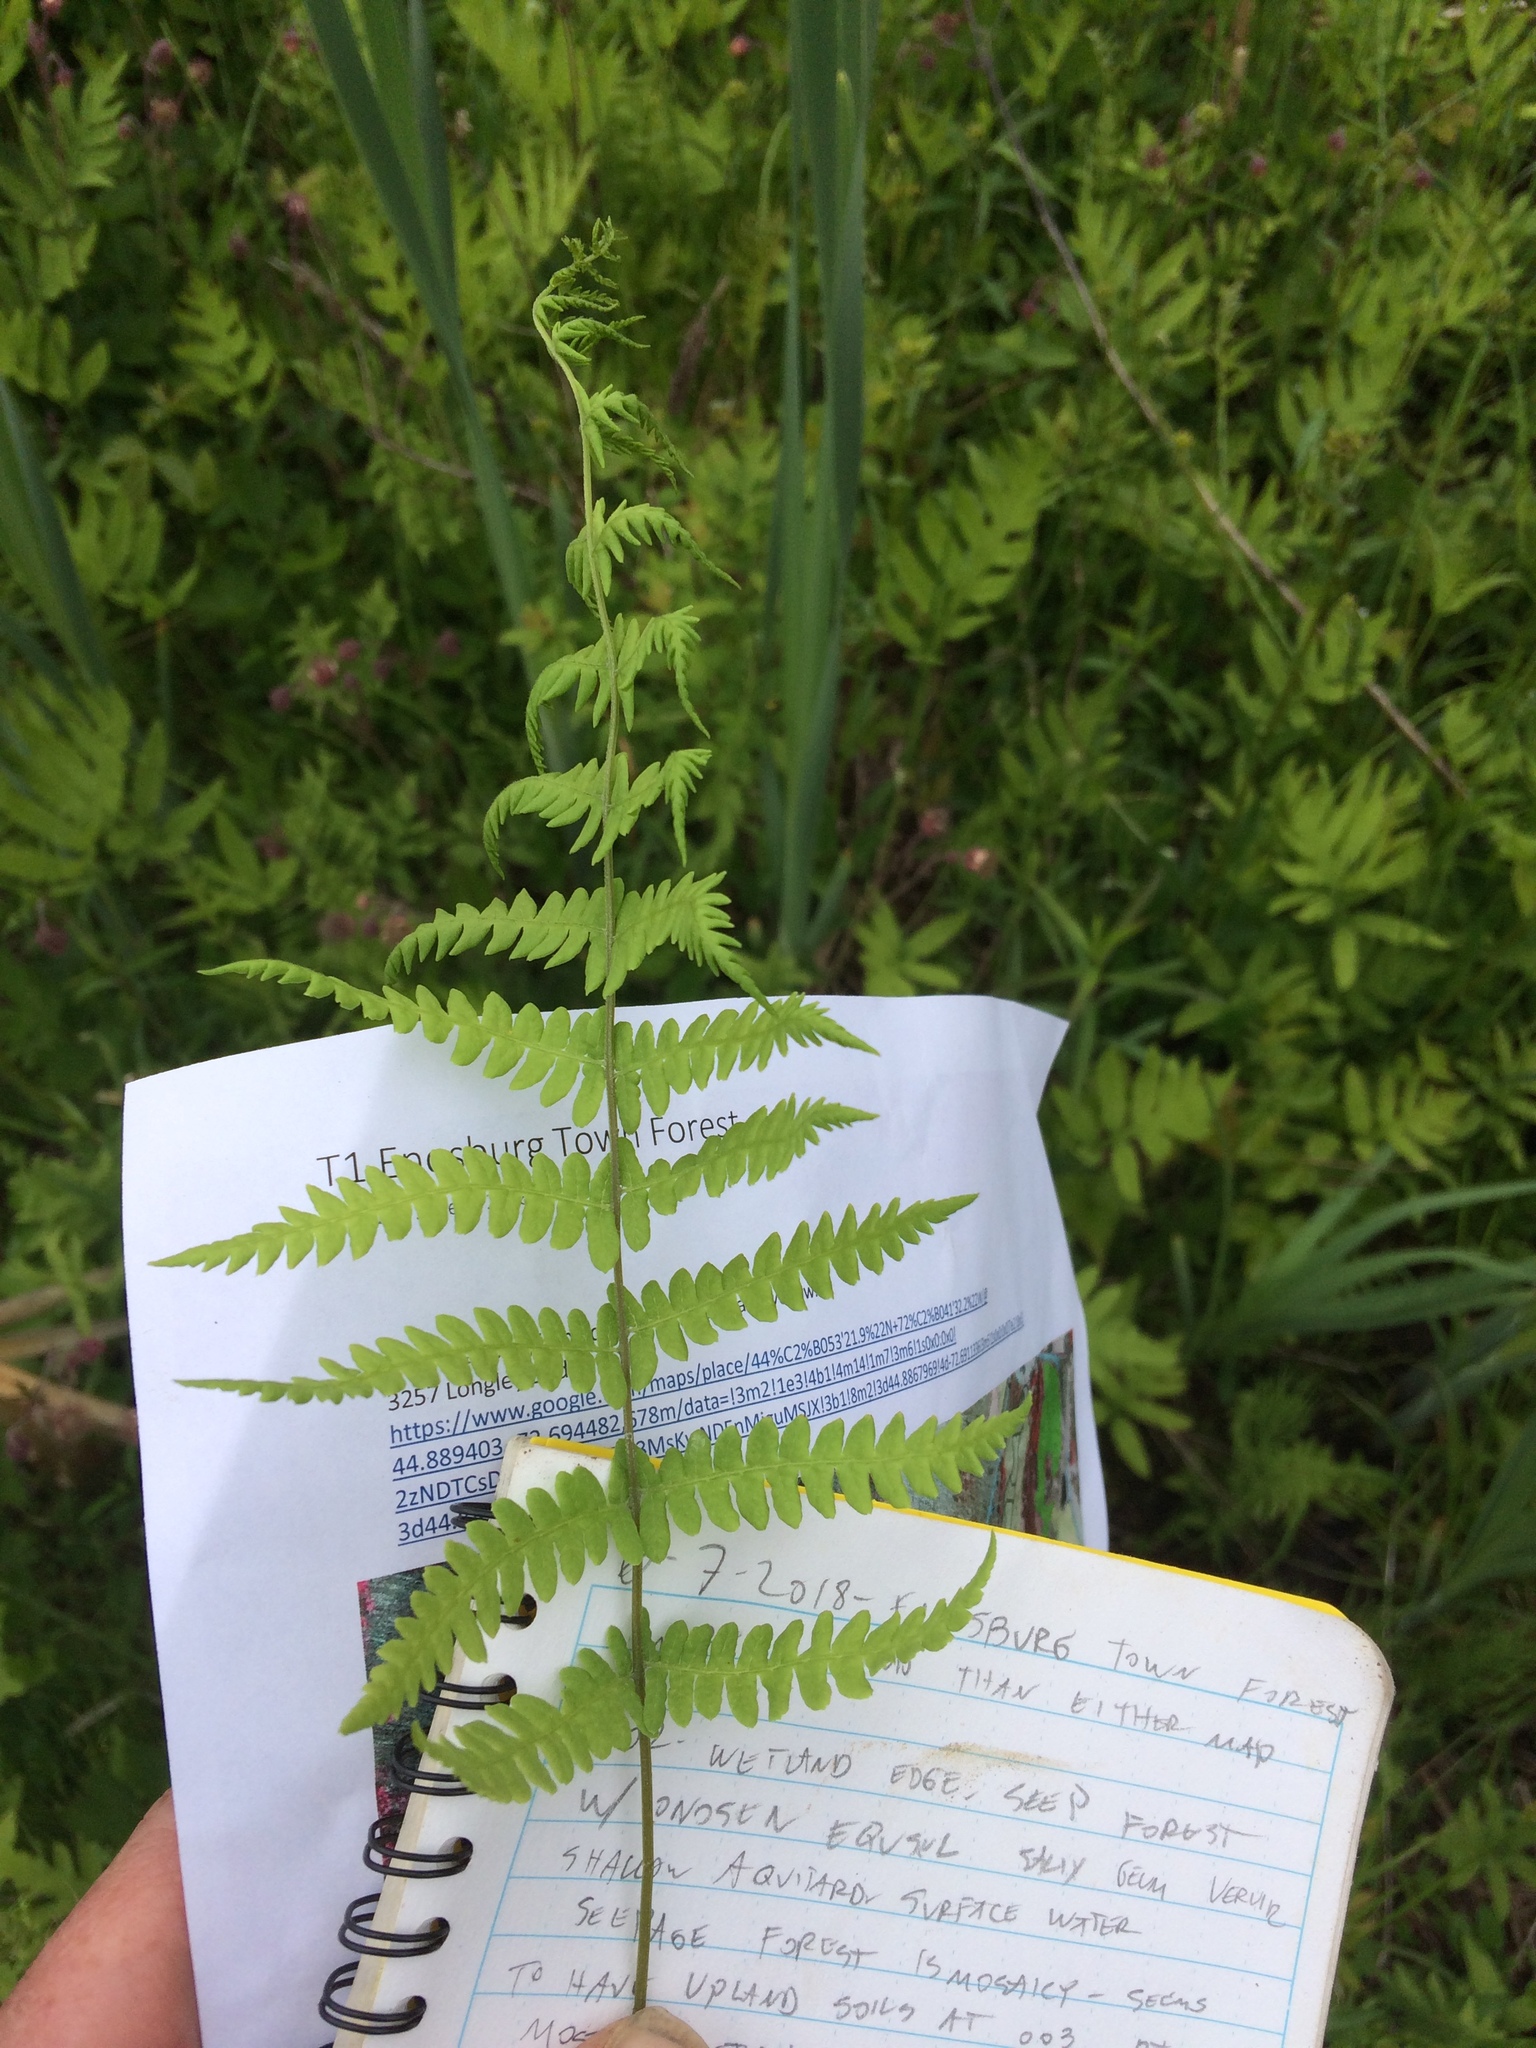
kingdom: Plantae
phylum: Tracheophyta
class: Polypodiopsida
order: Polypodiales
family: Thelypteridaceae
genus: Thelypteris
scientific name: Thelypteris palustris
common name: Marsh fern
